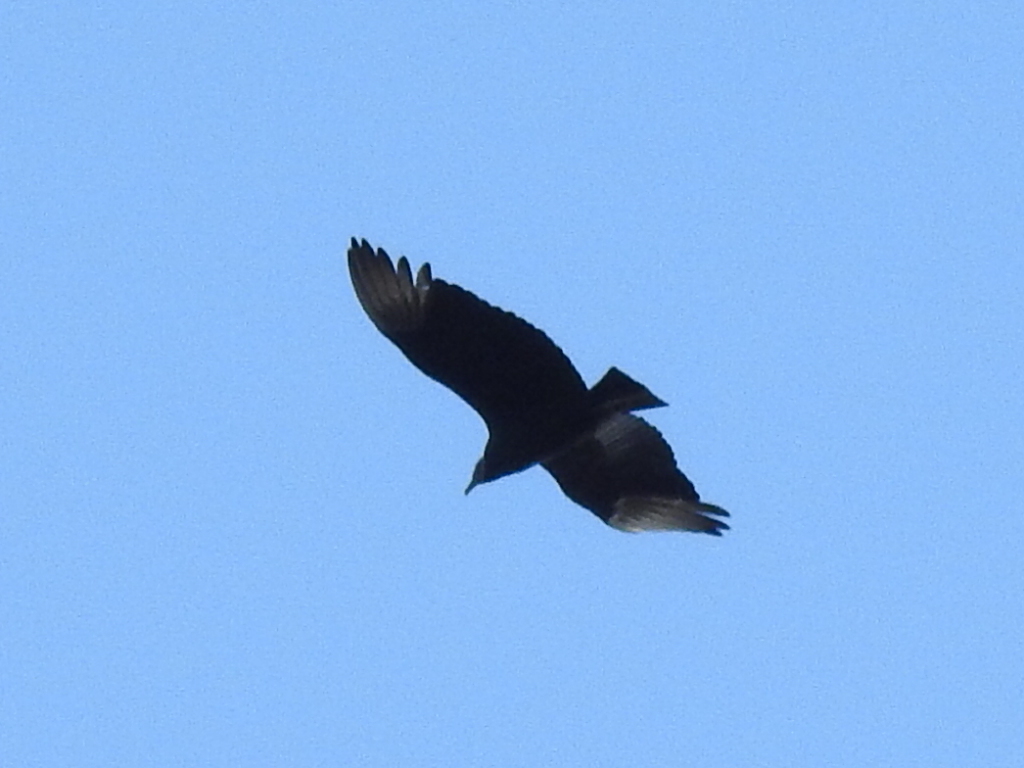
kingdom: Animalia
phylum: Chordata
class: Aves
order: Accipitriformes
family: Cathartidae
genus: Coragyps
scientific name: Coragyps atratus
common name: Black vulture
